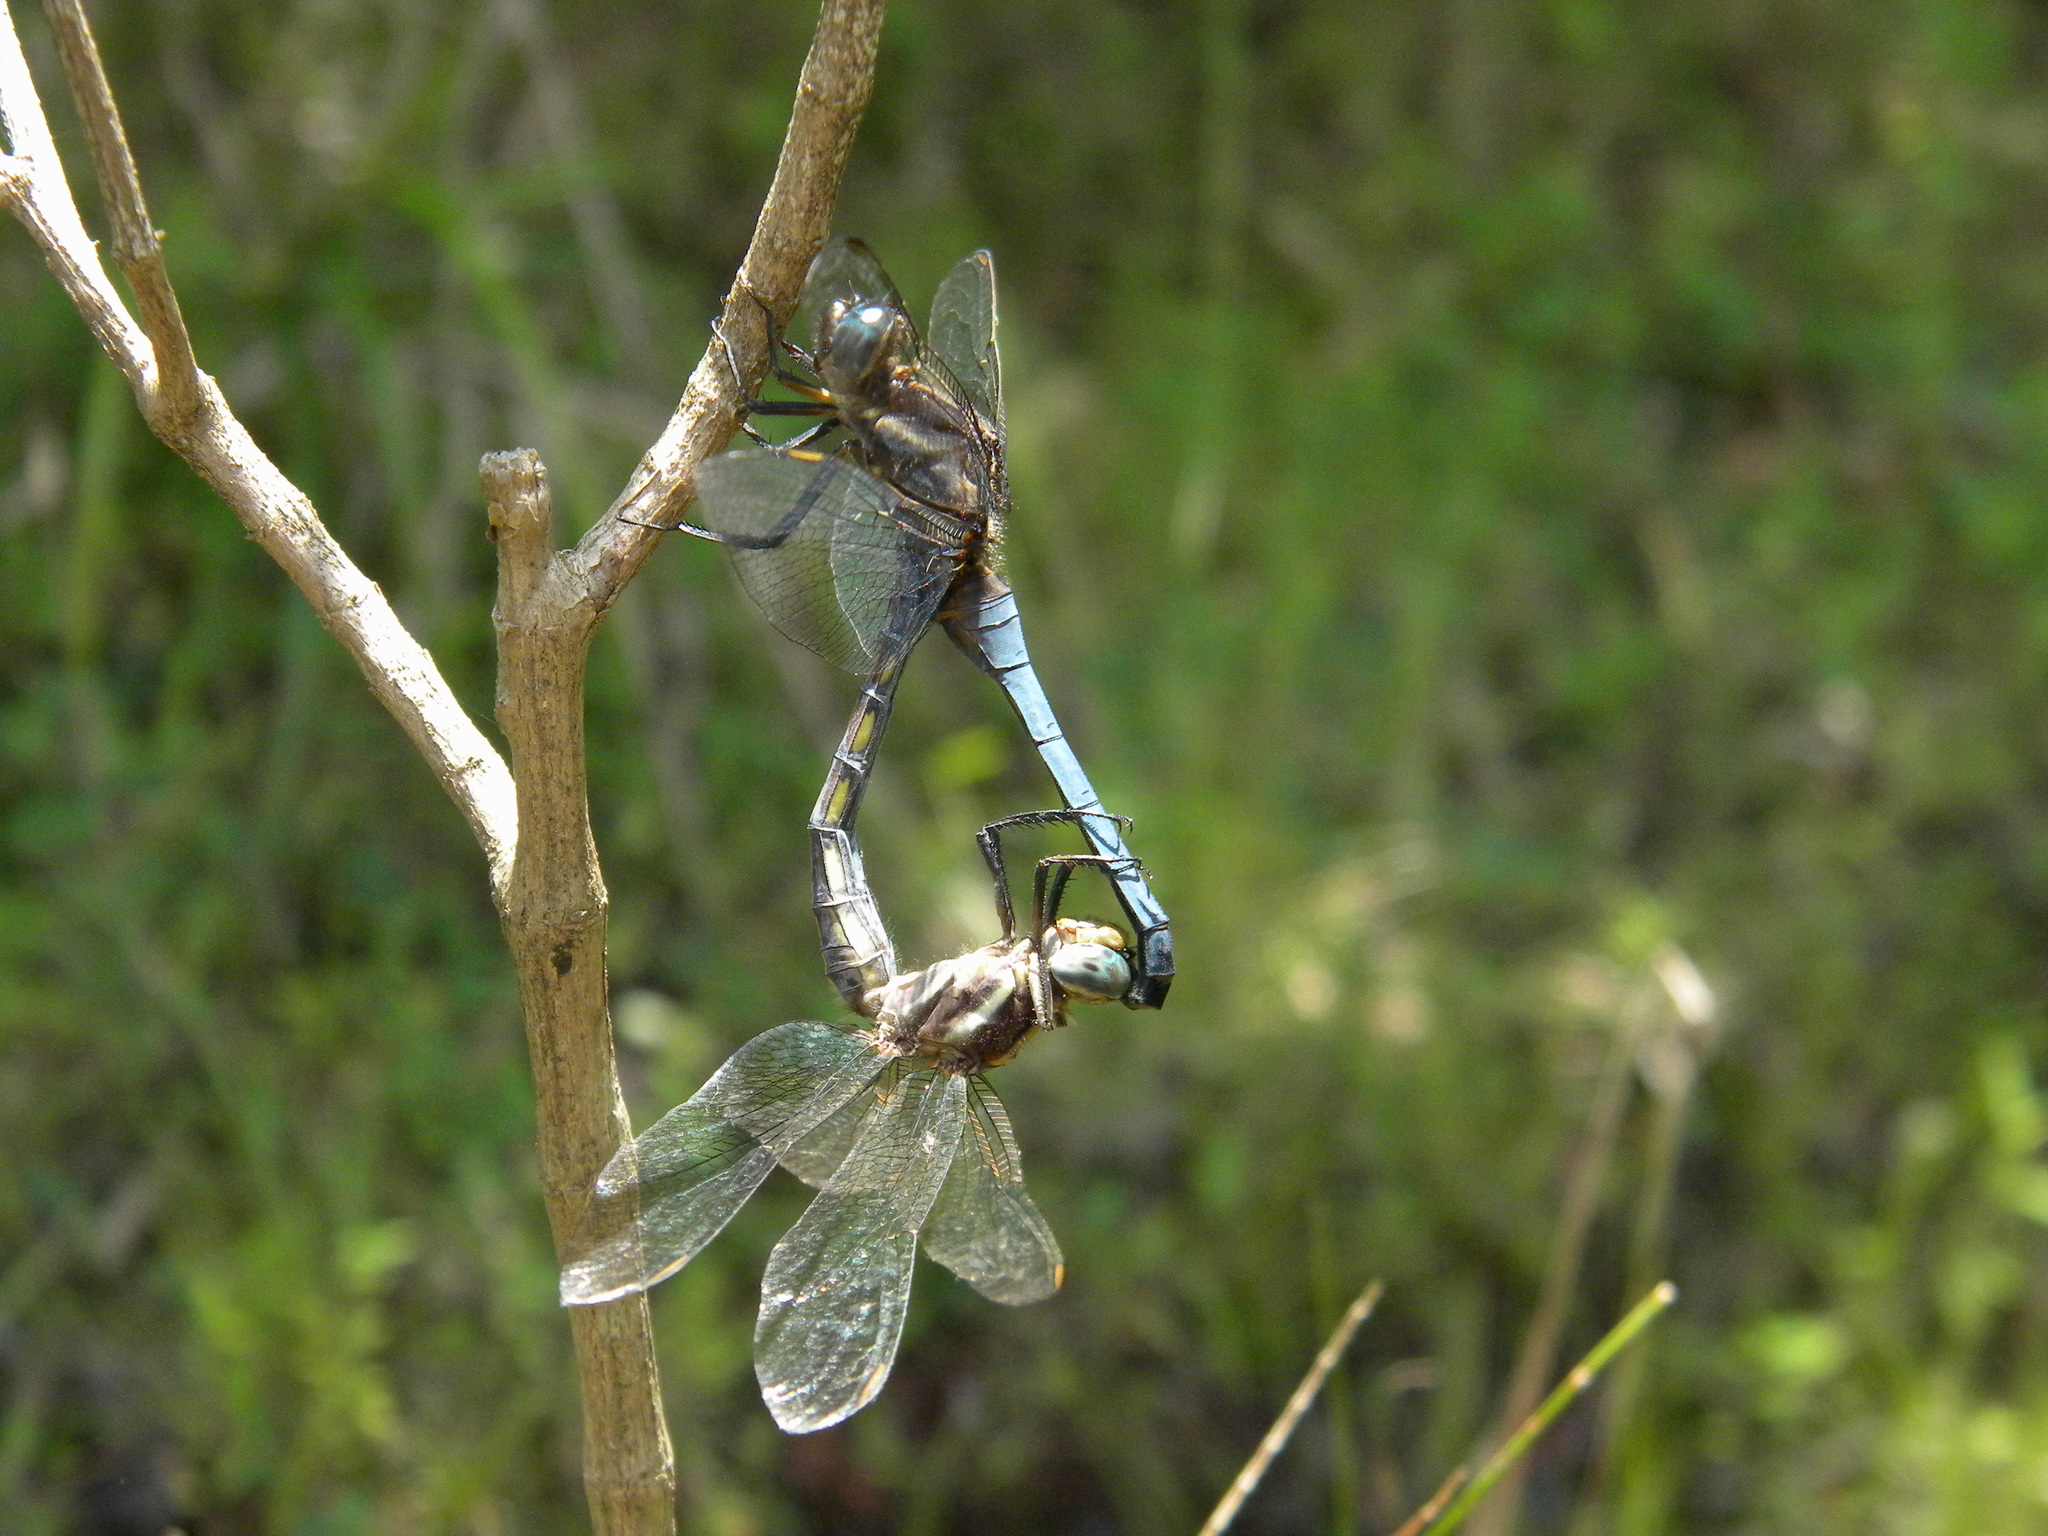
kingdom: Animalia
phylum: Arthropoda
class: Insecta
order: Odonata
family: Libellulidae
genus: Orthetrum
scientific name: Orthetrum glaucum
